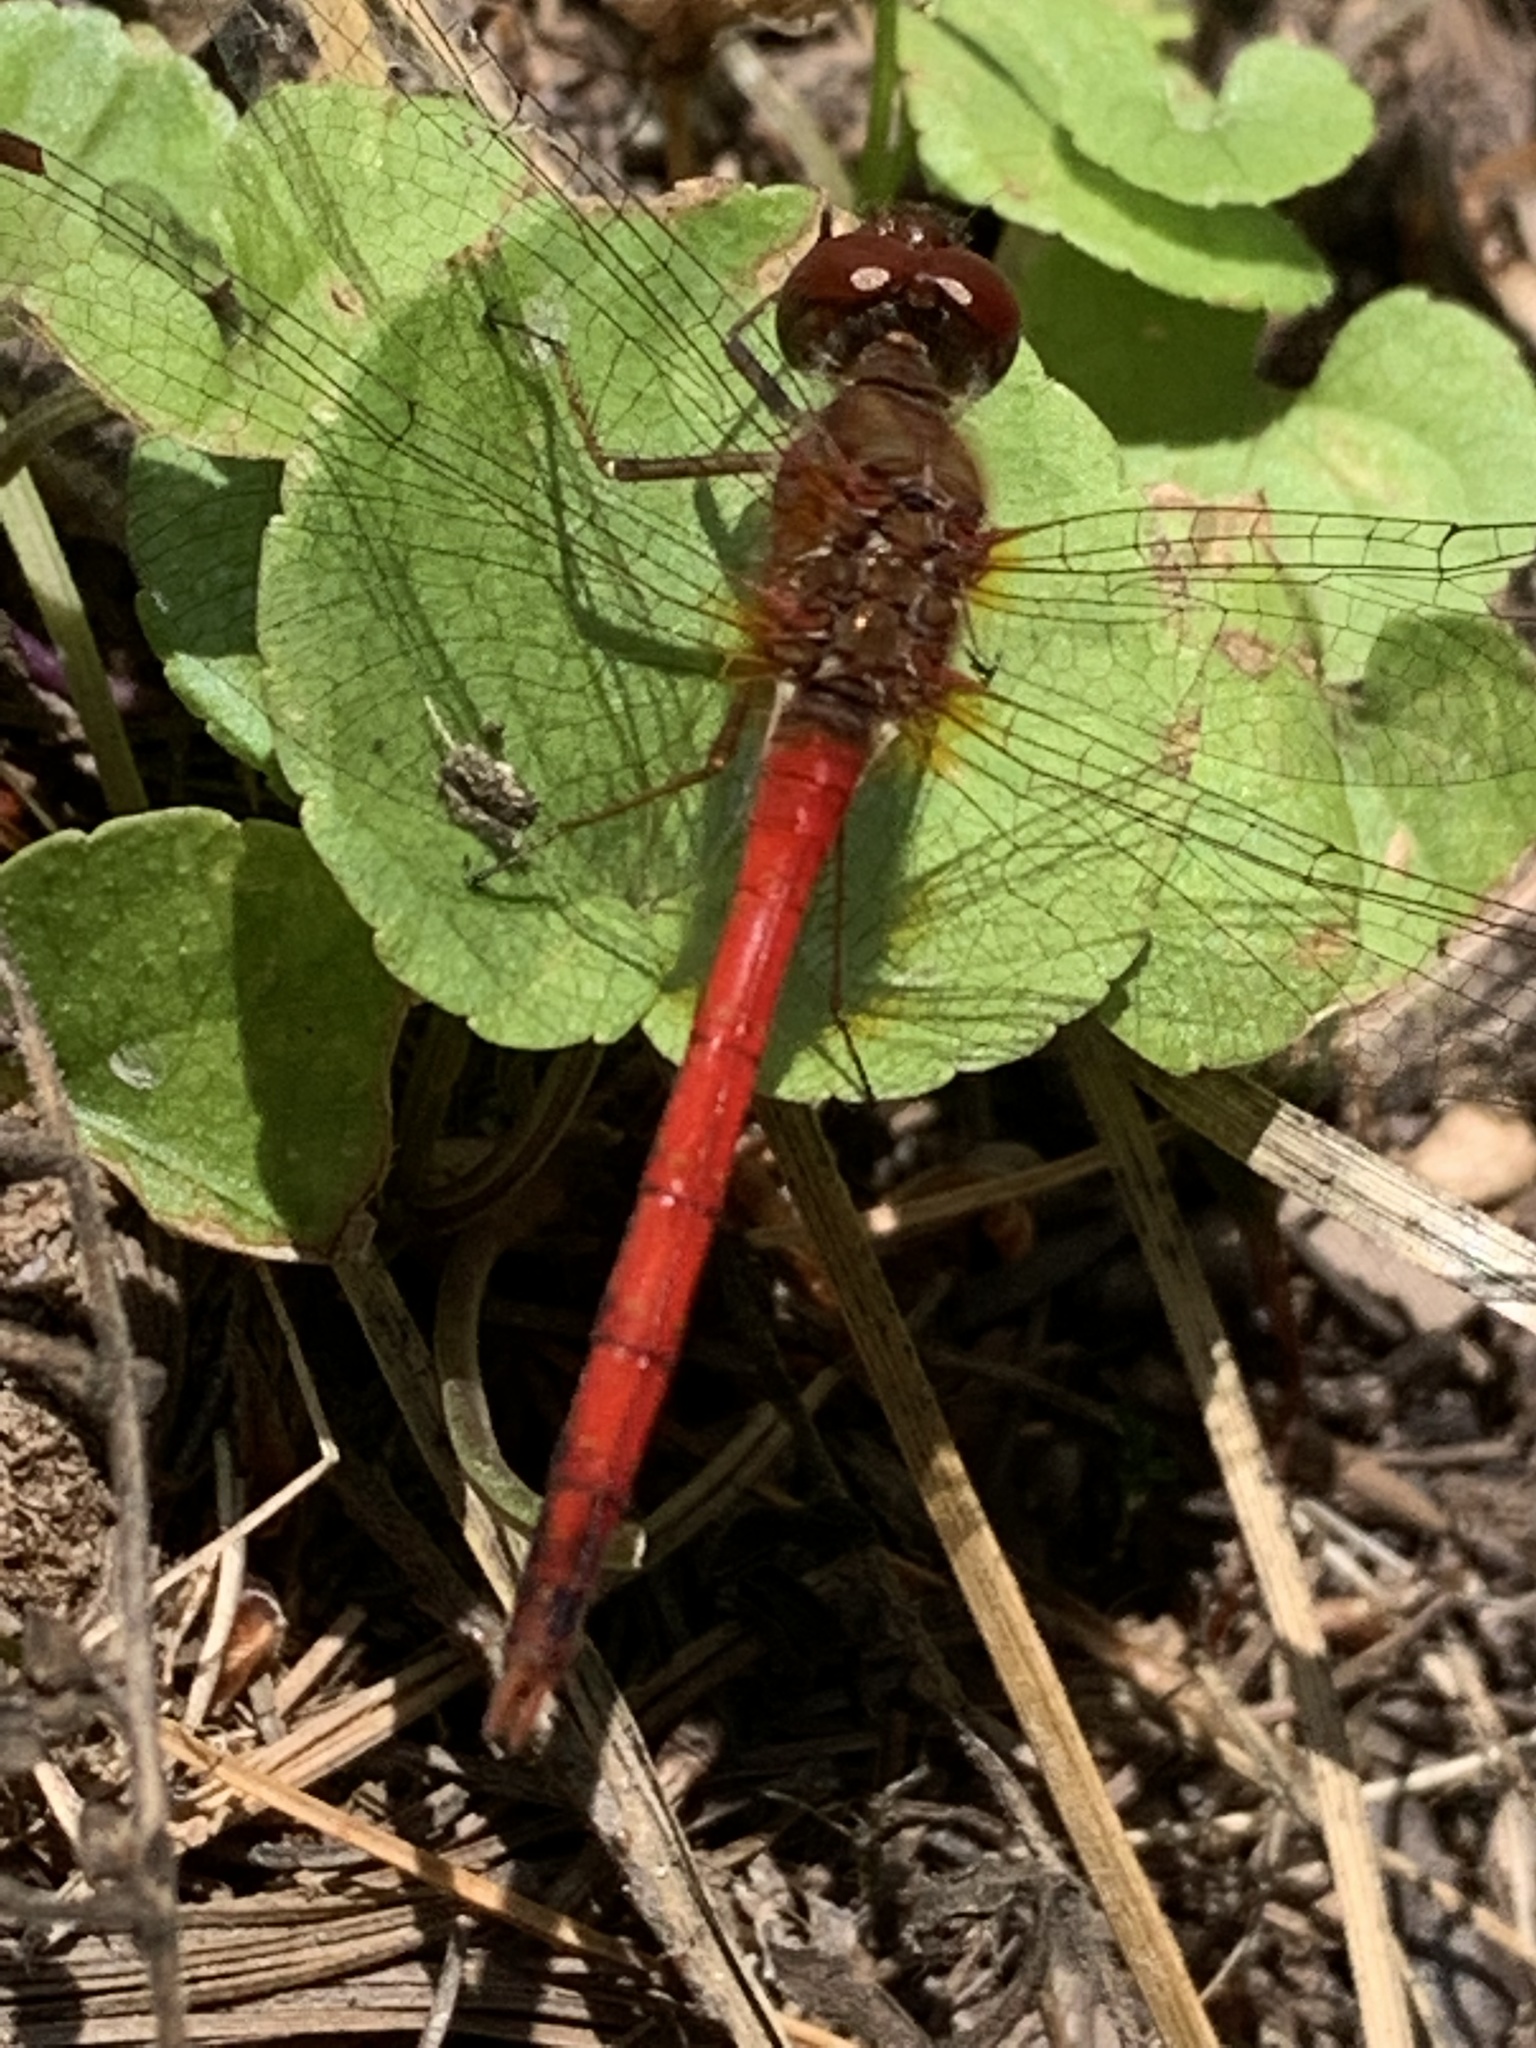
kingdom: Animalia
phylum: Arthropoda
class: Insecta
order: Odonata
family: Libellulidae
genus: Sympetrum
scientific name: Sympetrum vicinum
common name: Autumn meadowhawk
